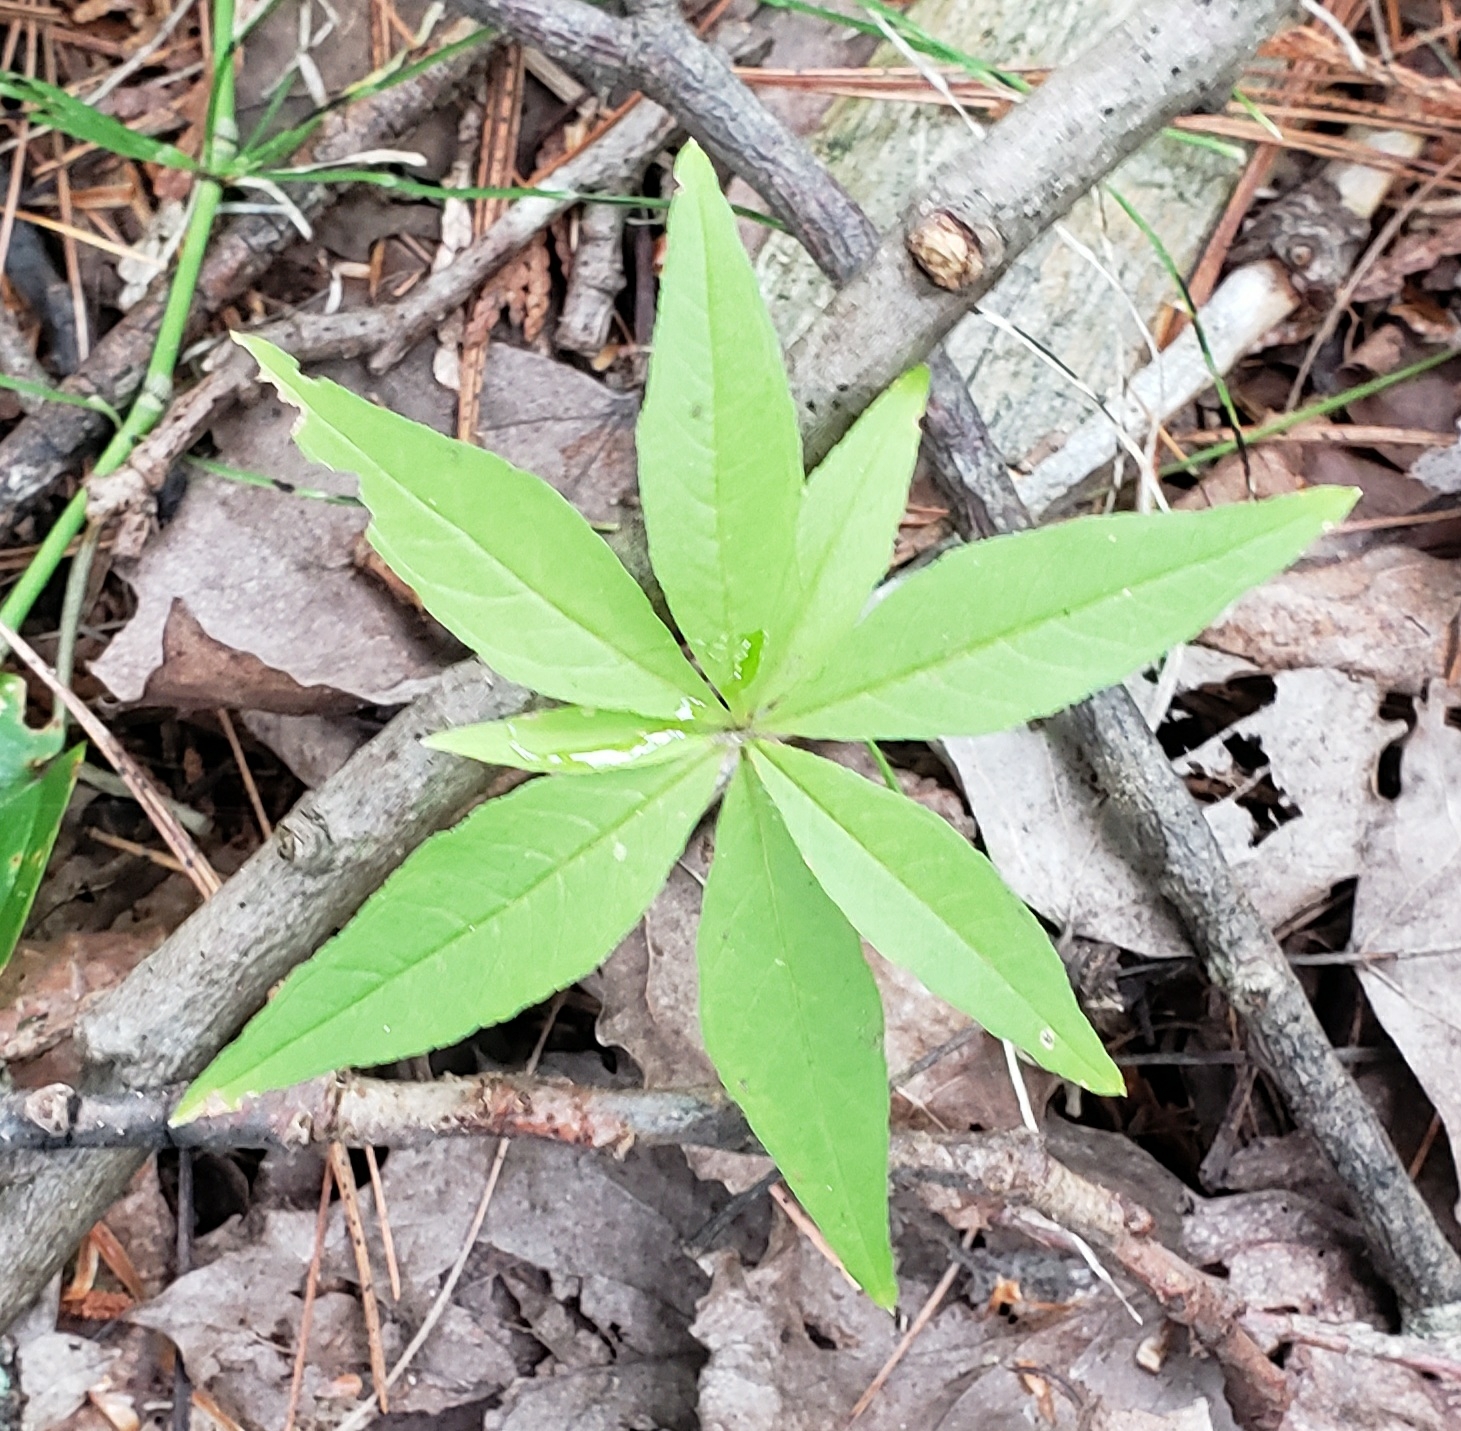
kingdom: Plantae
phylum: Tracheophyta
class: Magnoliopsida
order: Ericales
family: Primulaceae
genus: Lysimachia
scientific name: Lysimachia borealis
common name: American starflower
